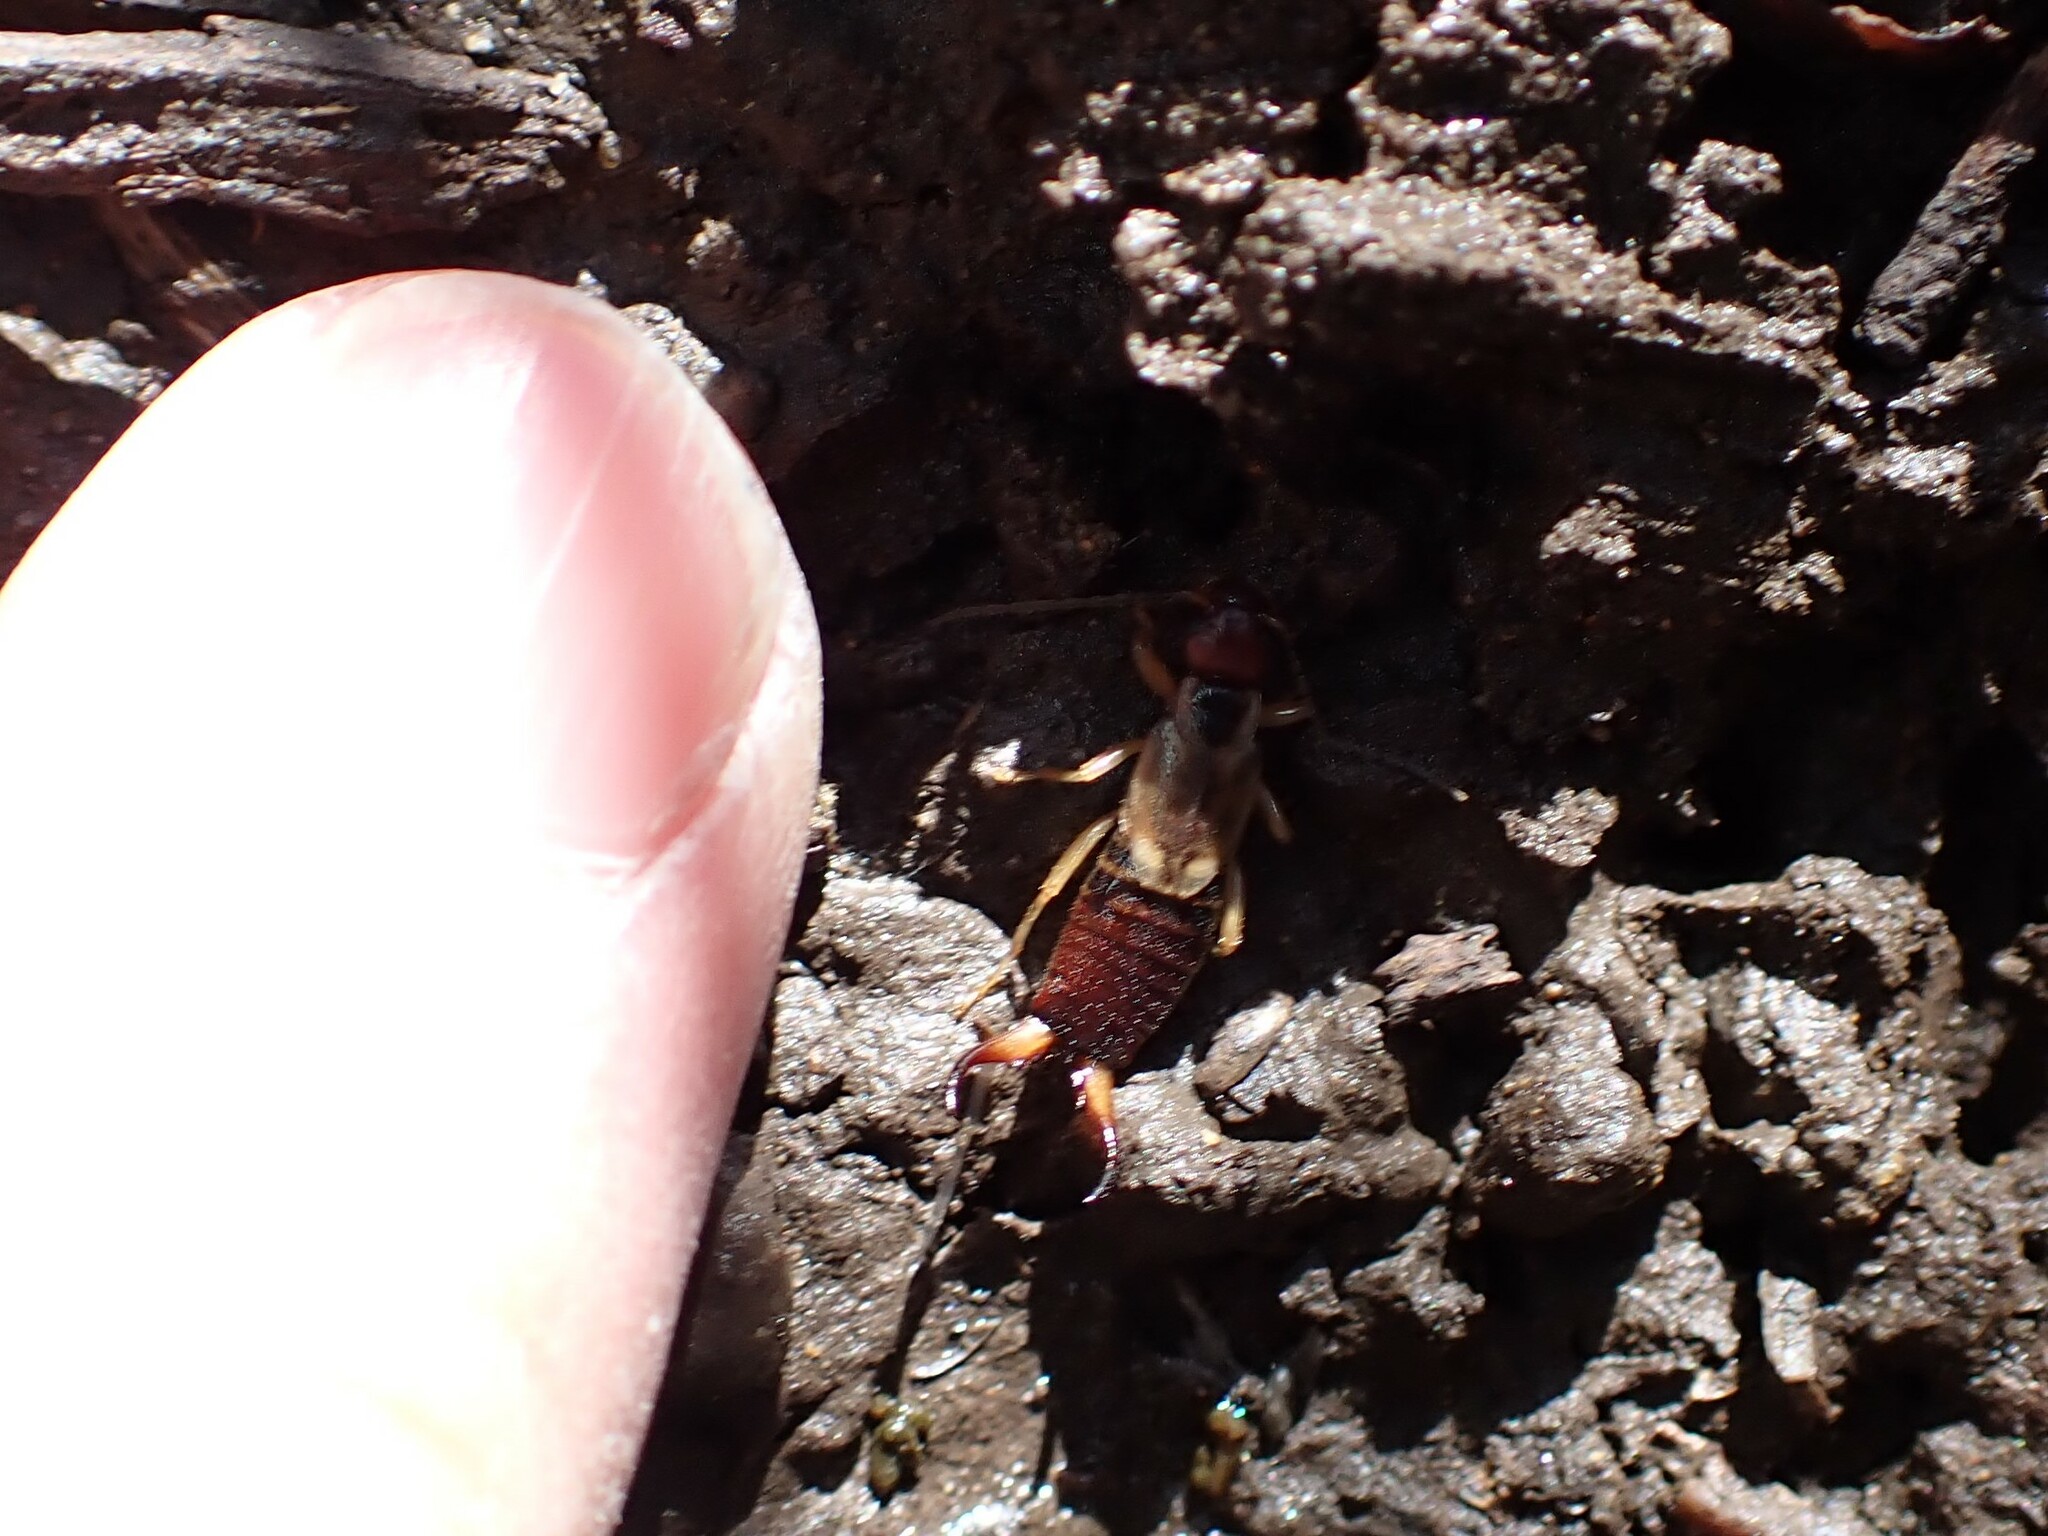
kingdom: Animalia
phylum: Arthropoda
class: Insecta
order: Dermaptera
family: Forficulidae
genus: Forficula
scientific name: Forficula
